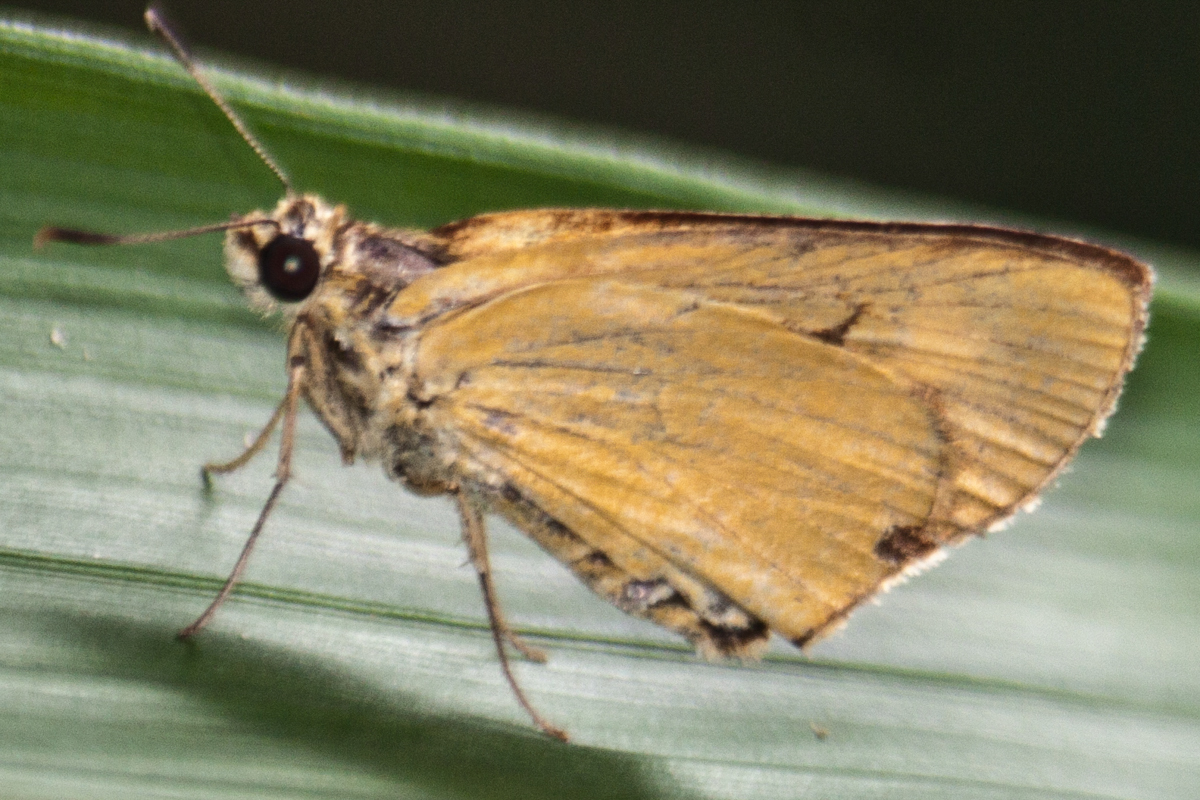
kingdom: Animalia
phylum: Arthropoda
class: Insecta
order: Lepidoptera
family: Hesperiidae
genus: Cupitha
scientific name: Cupitha purreea
